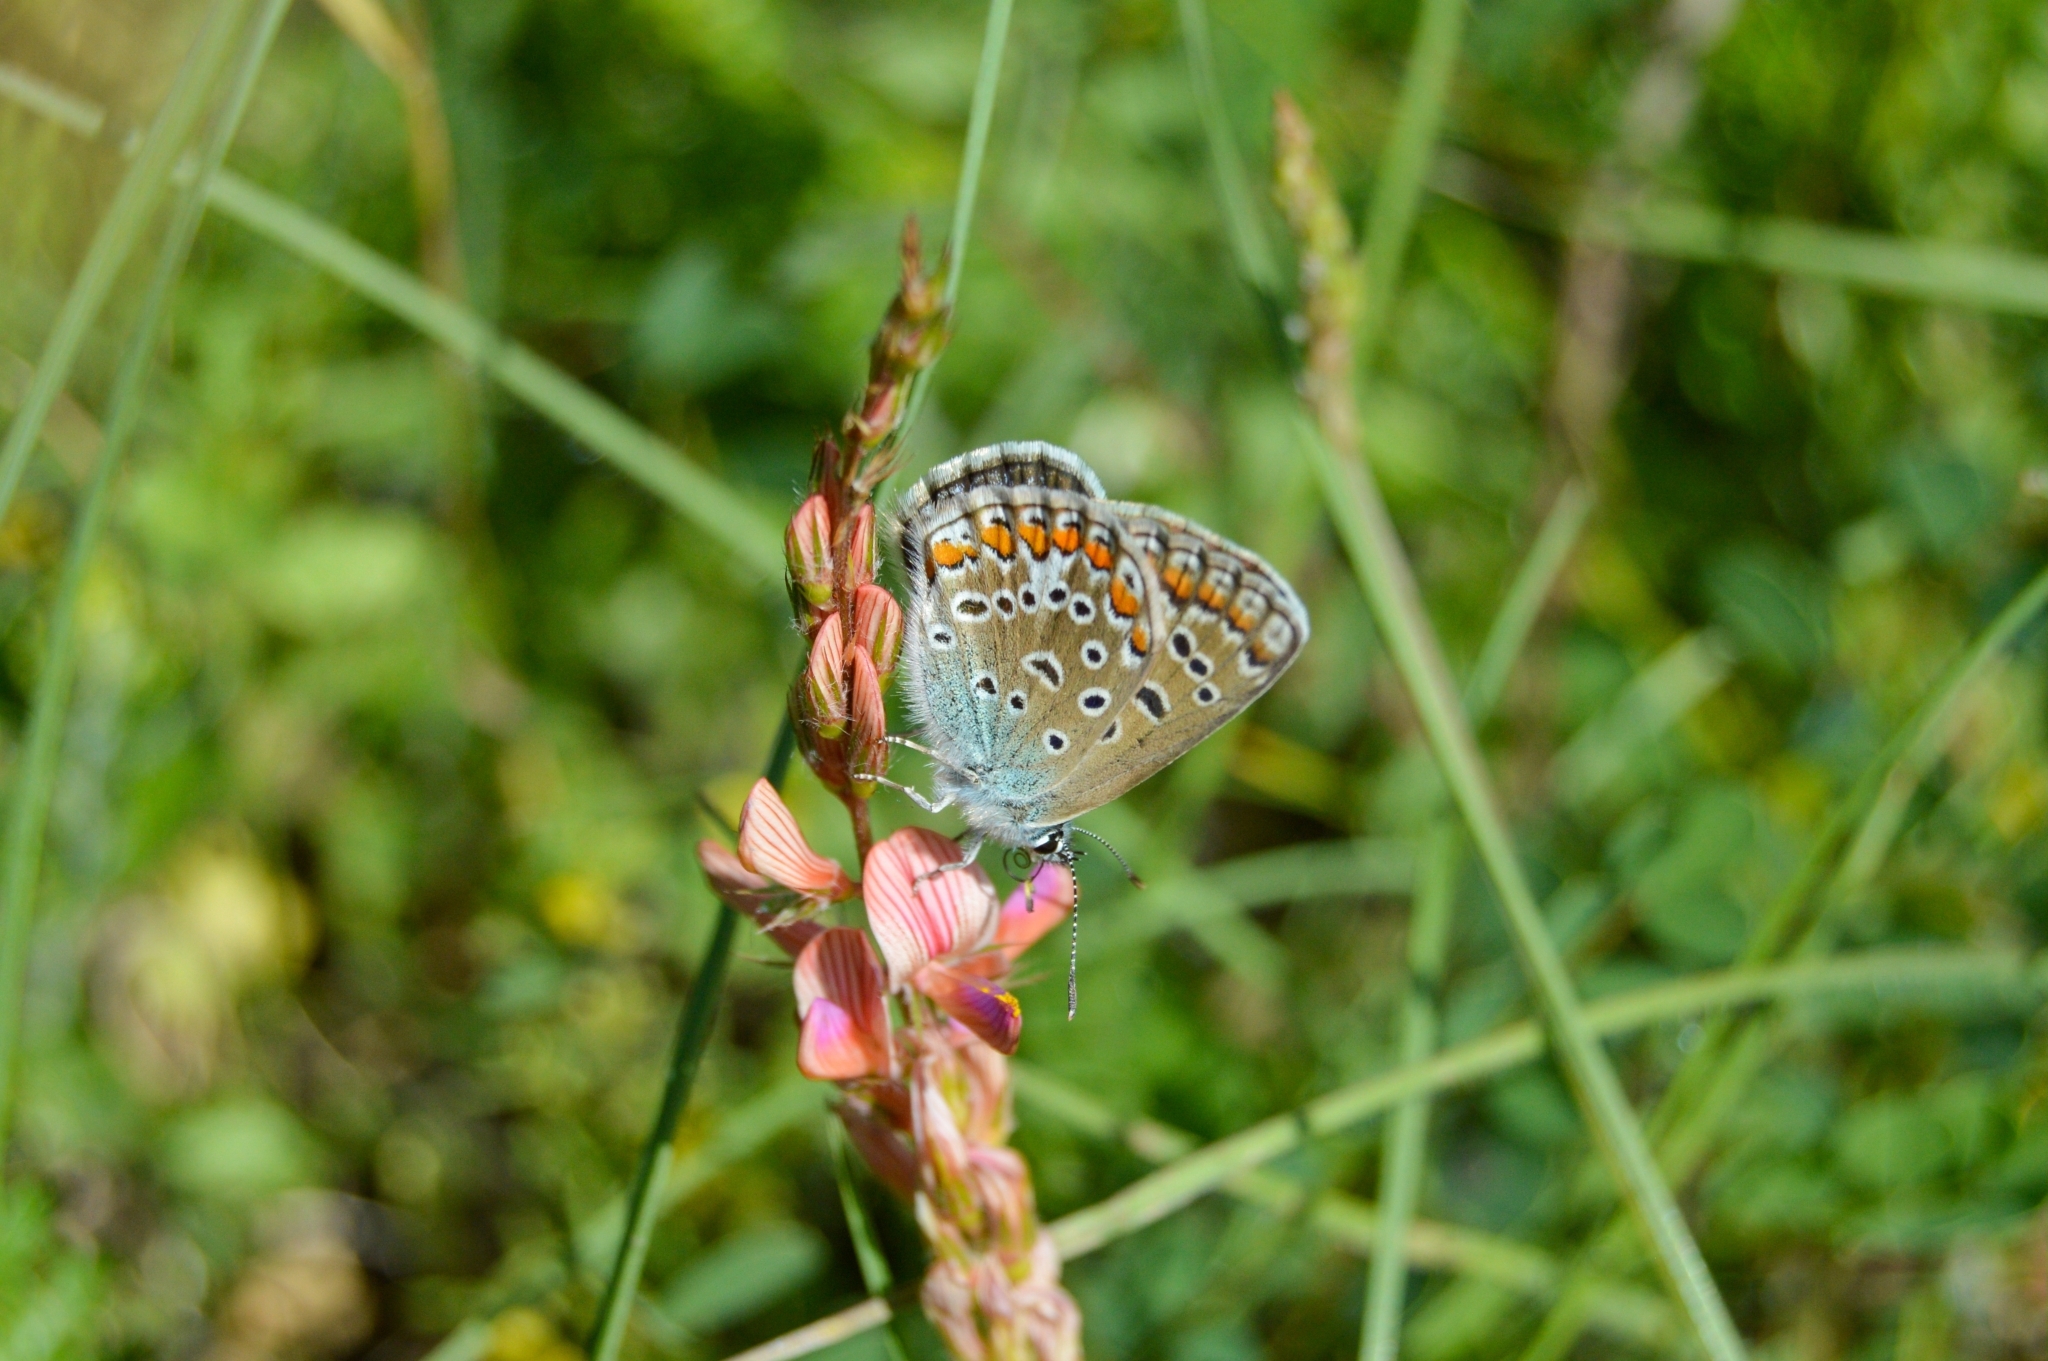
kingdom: Animalia
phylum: Arthropoda
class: Insecta
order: Lepidoptera
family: Lycaenidae
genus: Polyommatus
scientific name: Polyommatus icarus
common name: Common blue
